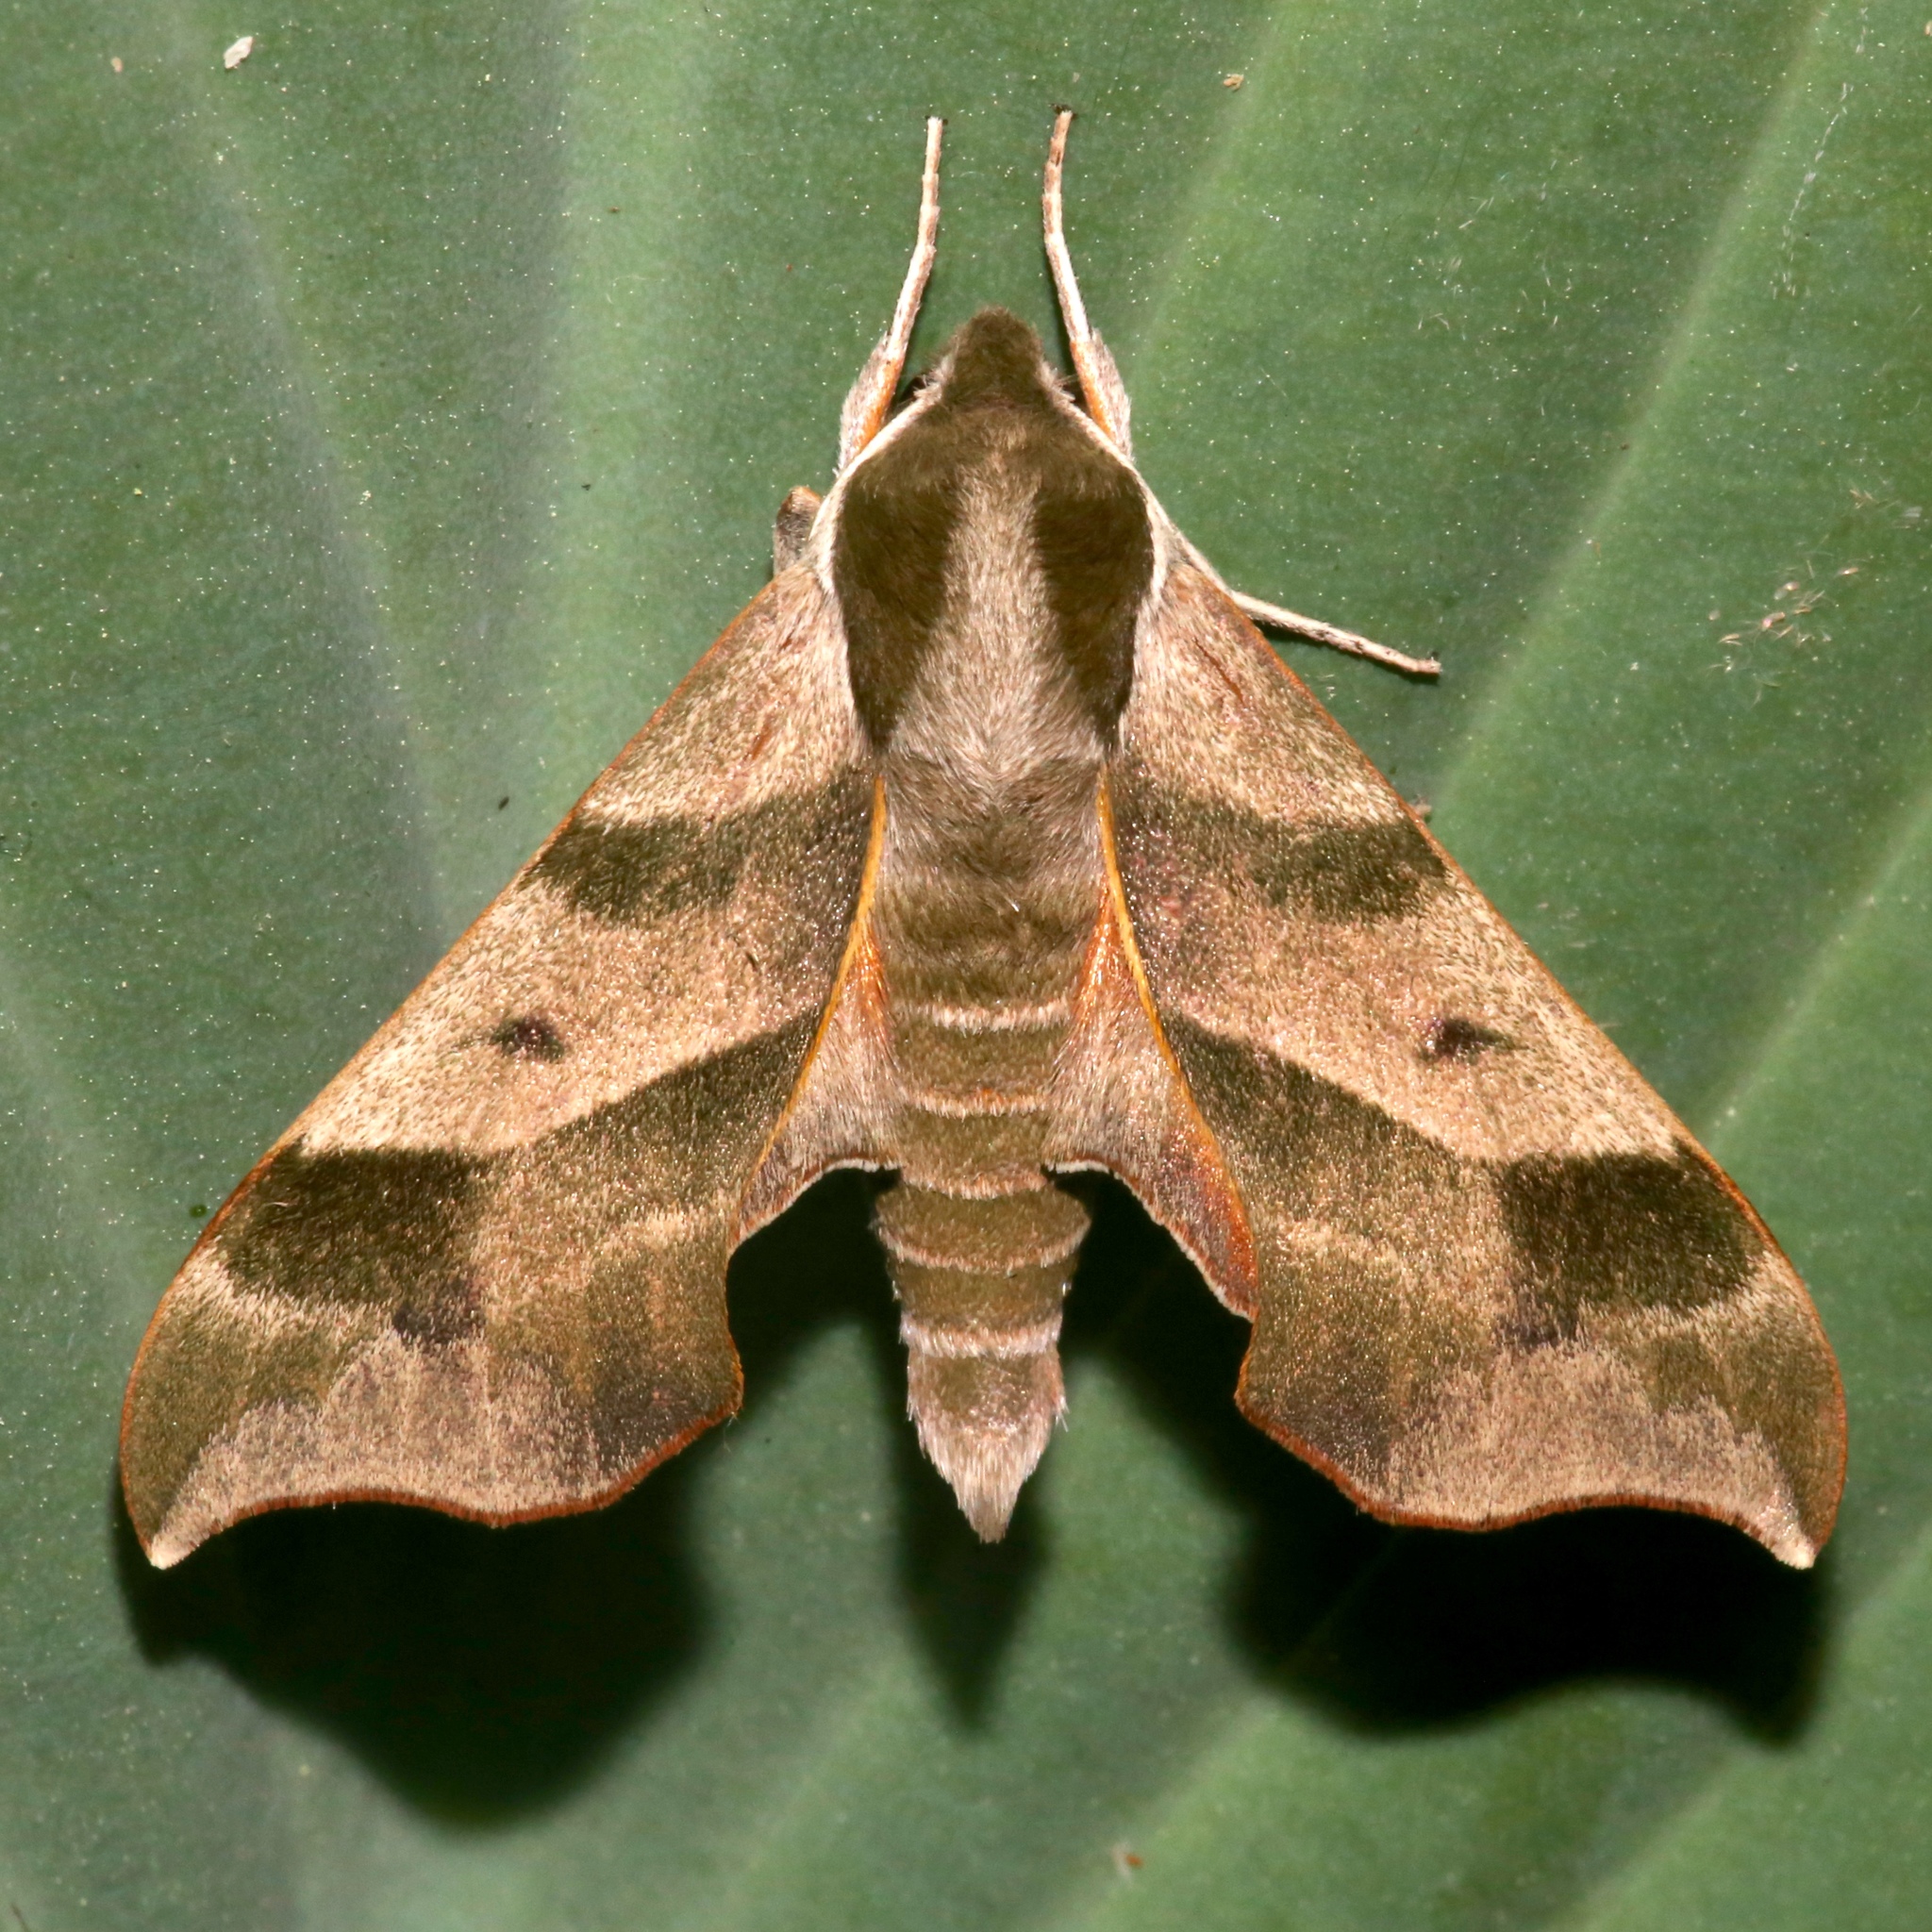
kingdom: Animalia
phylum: Arthropoda
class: Insecta
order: Lepidoptera
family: Sphingidae
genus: Darapsa
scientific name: Darapsa myron
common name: Hog sphinx
